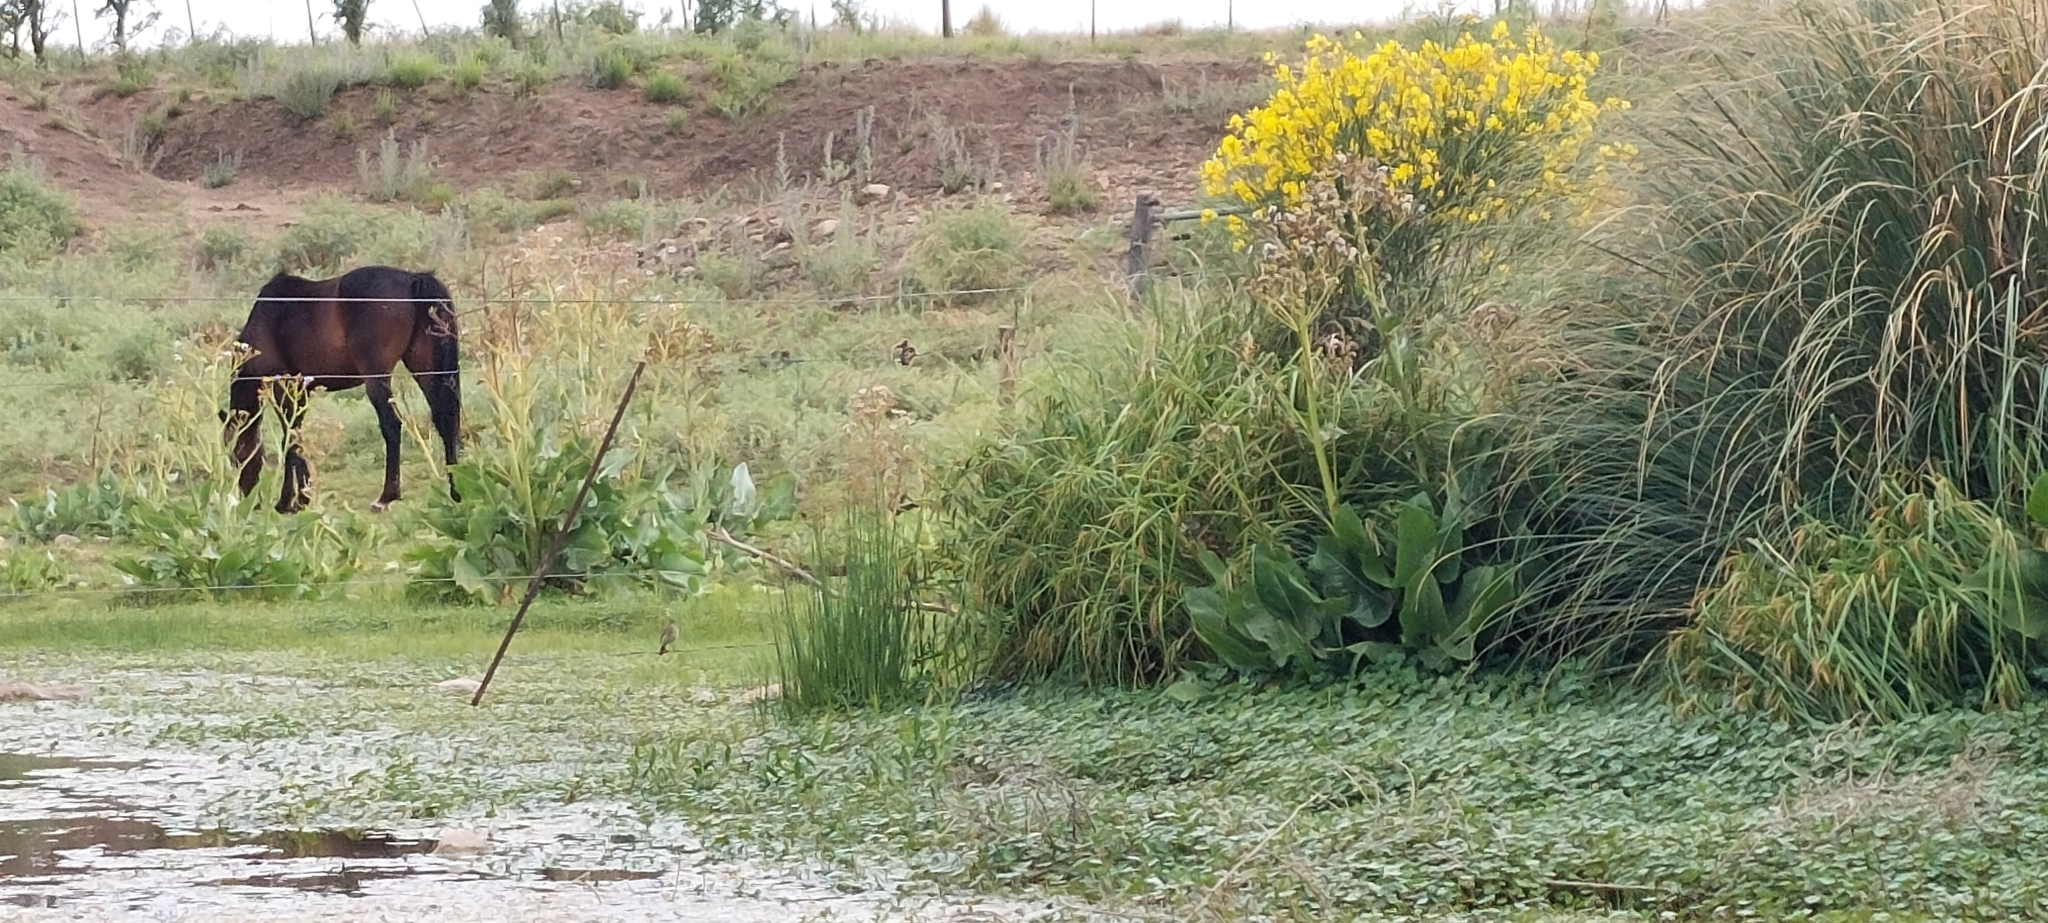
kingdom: Animalia
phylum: Chordata
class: Aves
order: Passeriformes
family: Furnariidae
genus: Furnarius
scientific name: Furnarius rufus
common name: Rufous hornero
